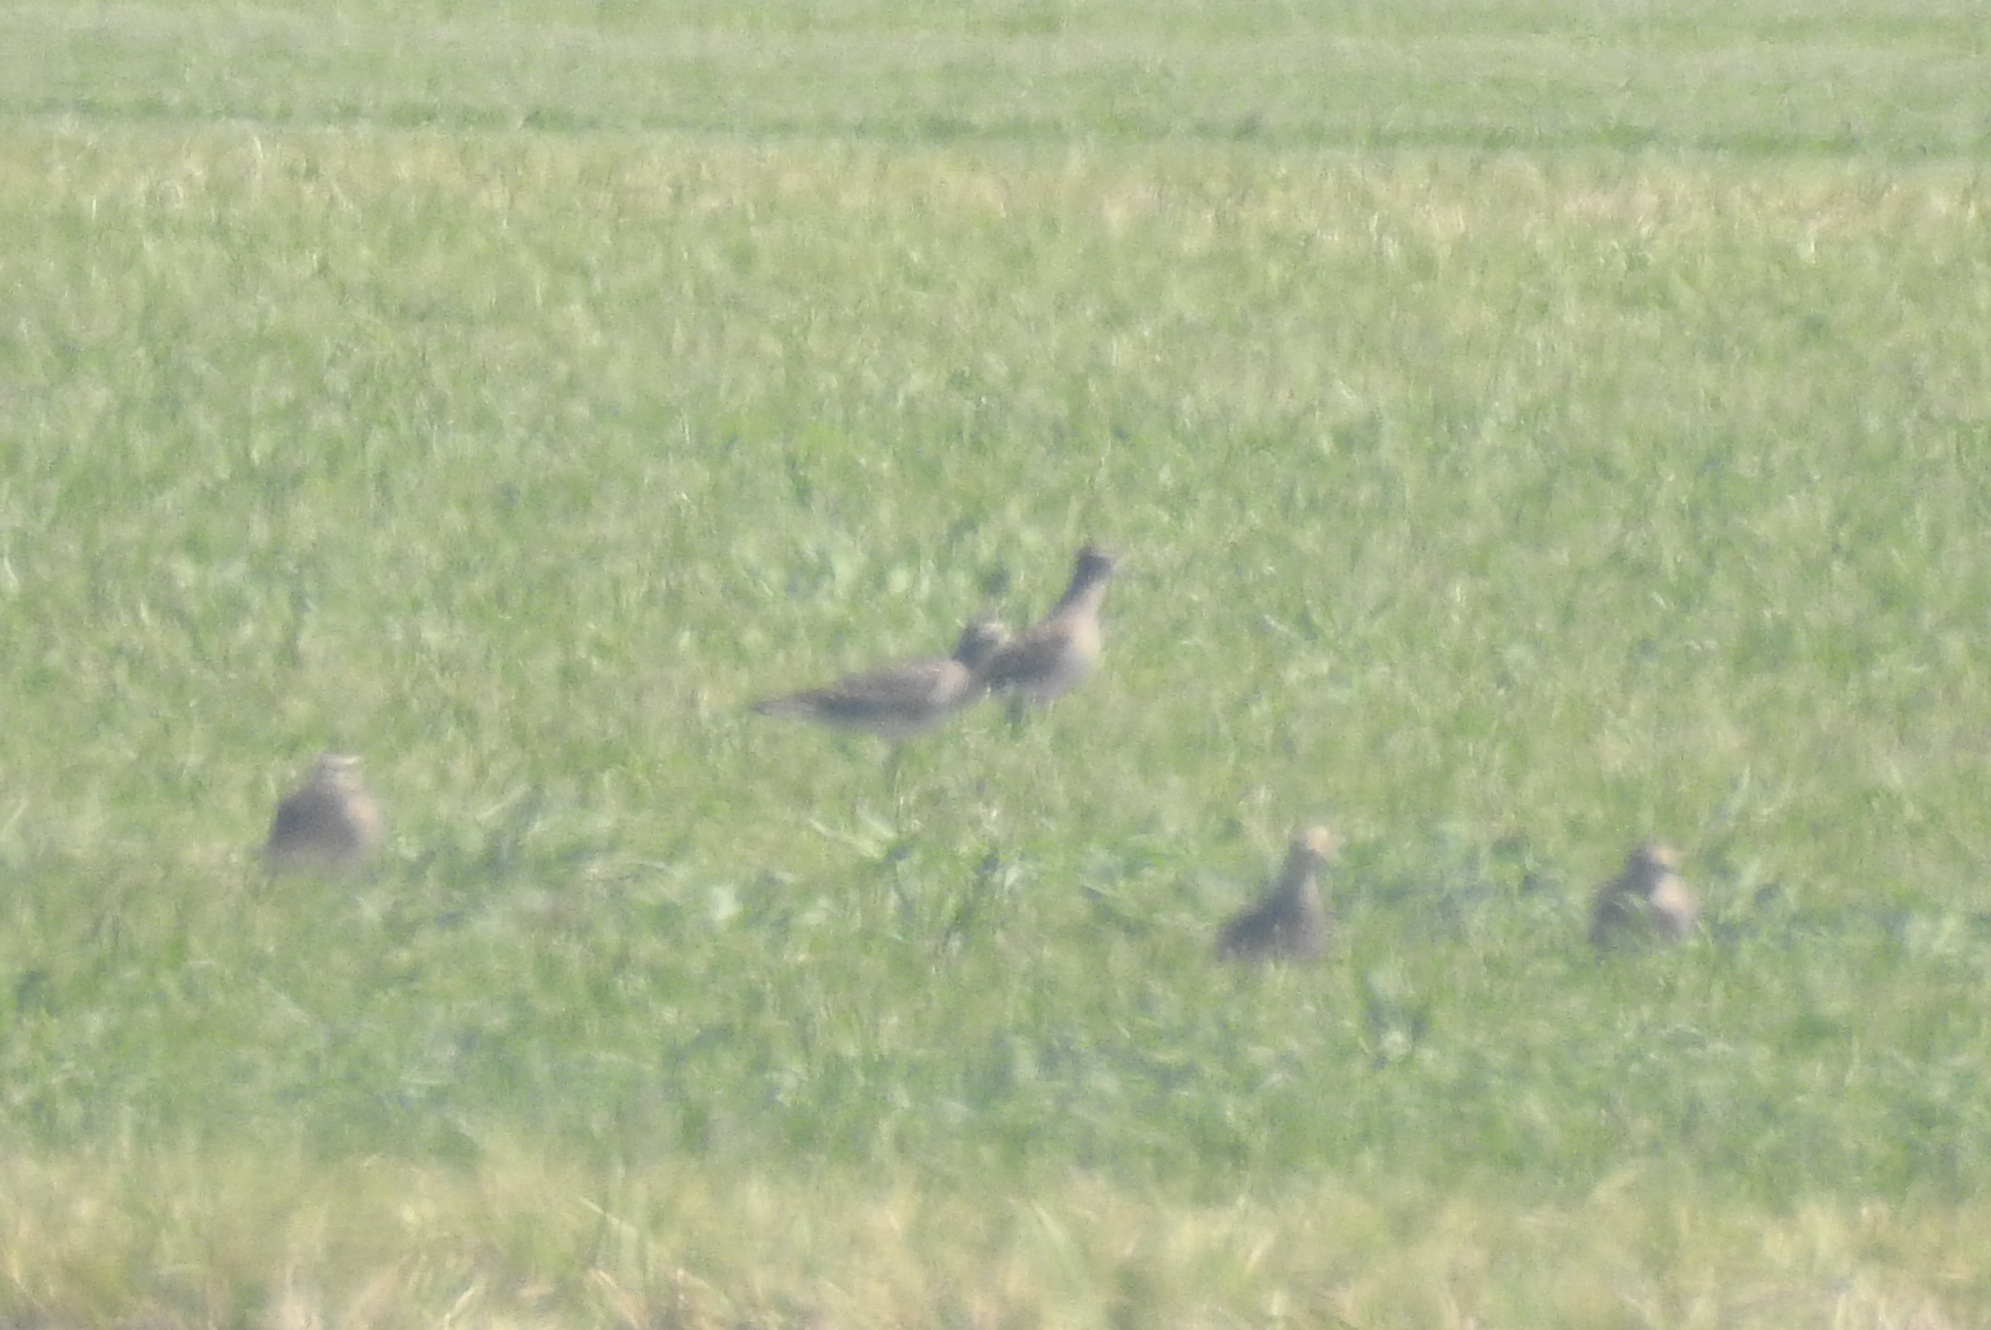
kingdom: Animalia
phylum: Chordata
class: Aves
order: Charadriiformes
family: Charadriidae
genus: Pluvialis
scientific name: Pluvialis dominica
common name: American golden plover
